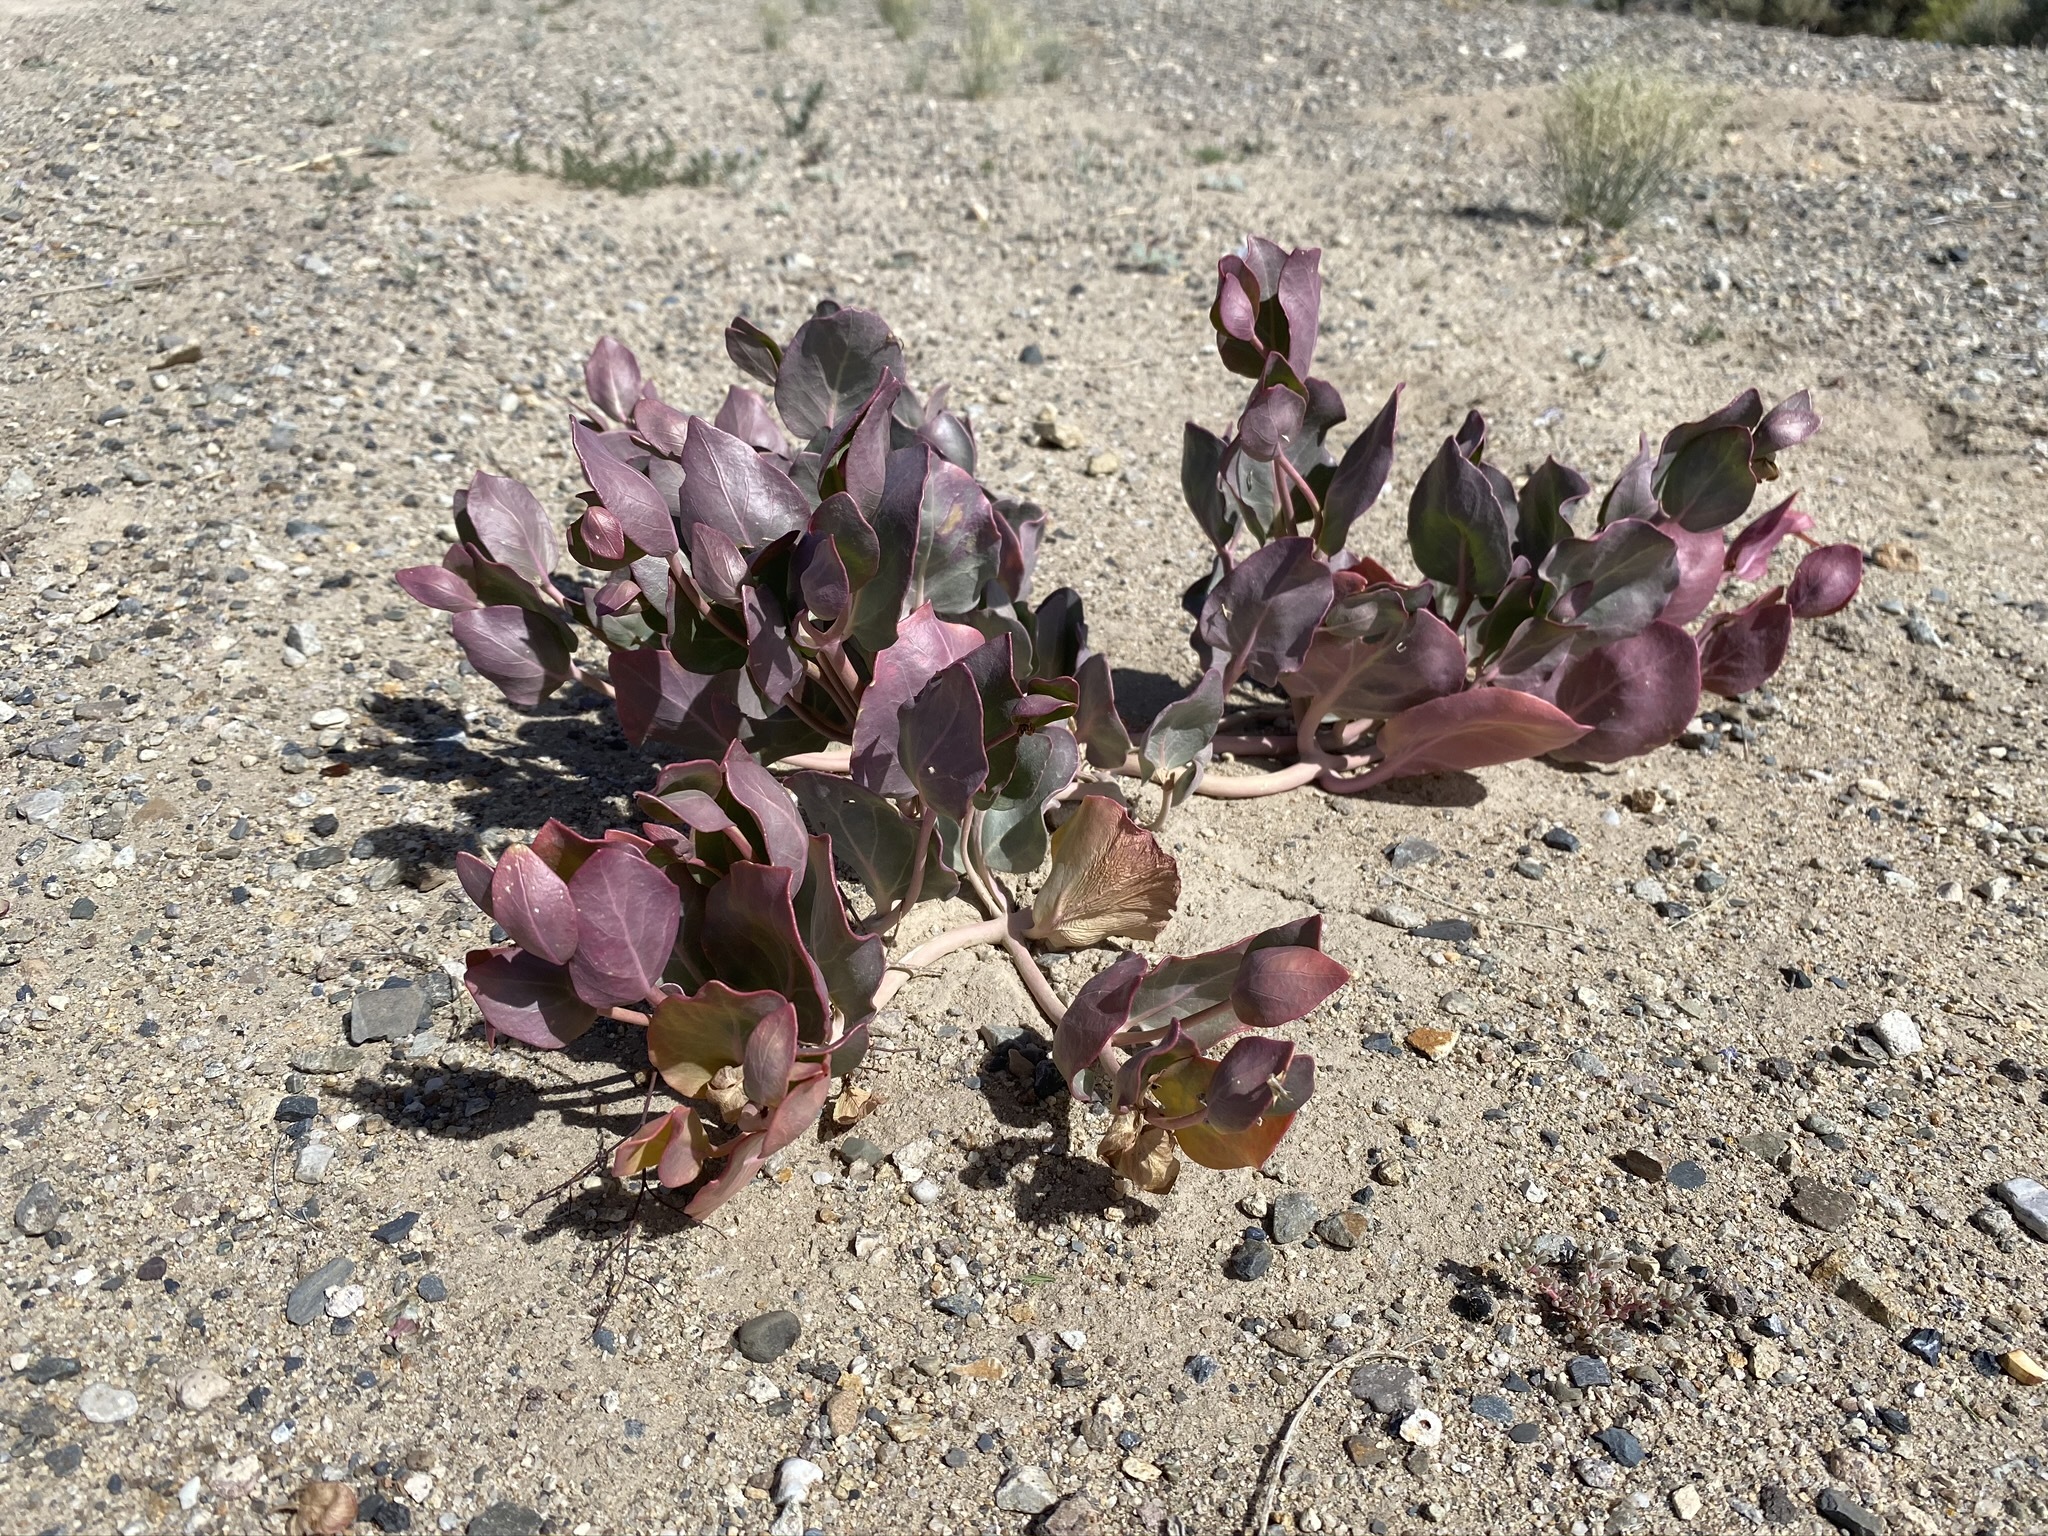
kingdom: Plantae
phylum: Tracheophyta
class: Magnoliopsida
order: Caryophyllales
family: Nyctaginaceae
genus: Mirabilis
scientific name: Mirabilis alipes
